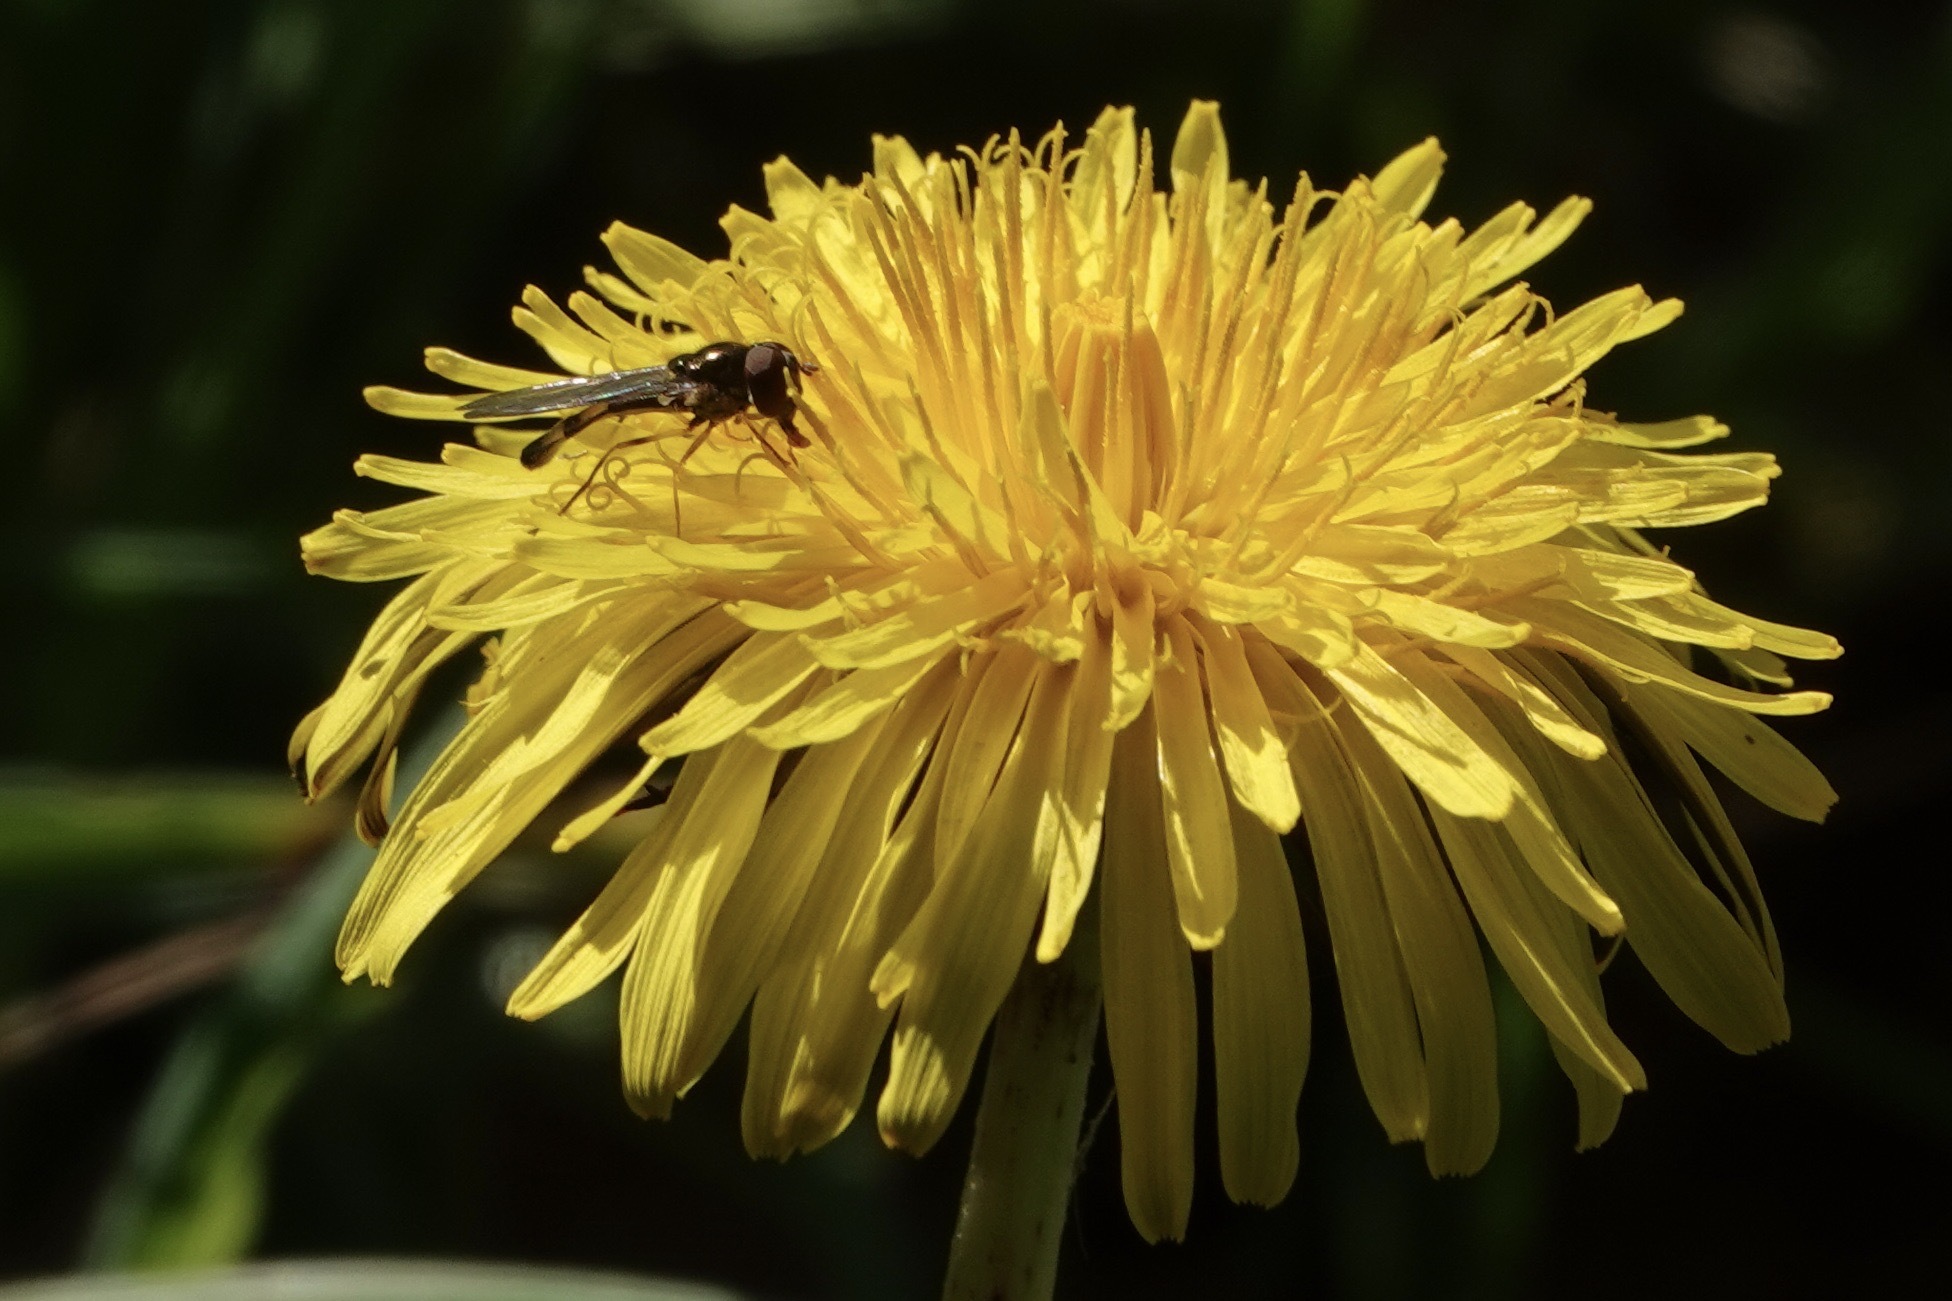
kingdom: Animalia
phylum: Arthropoda
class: Insecta
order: Diptera
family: Syrphidae
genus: Melanostoma
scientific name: Melanostoma scalare
